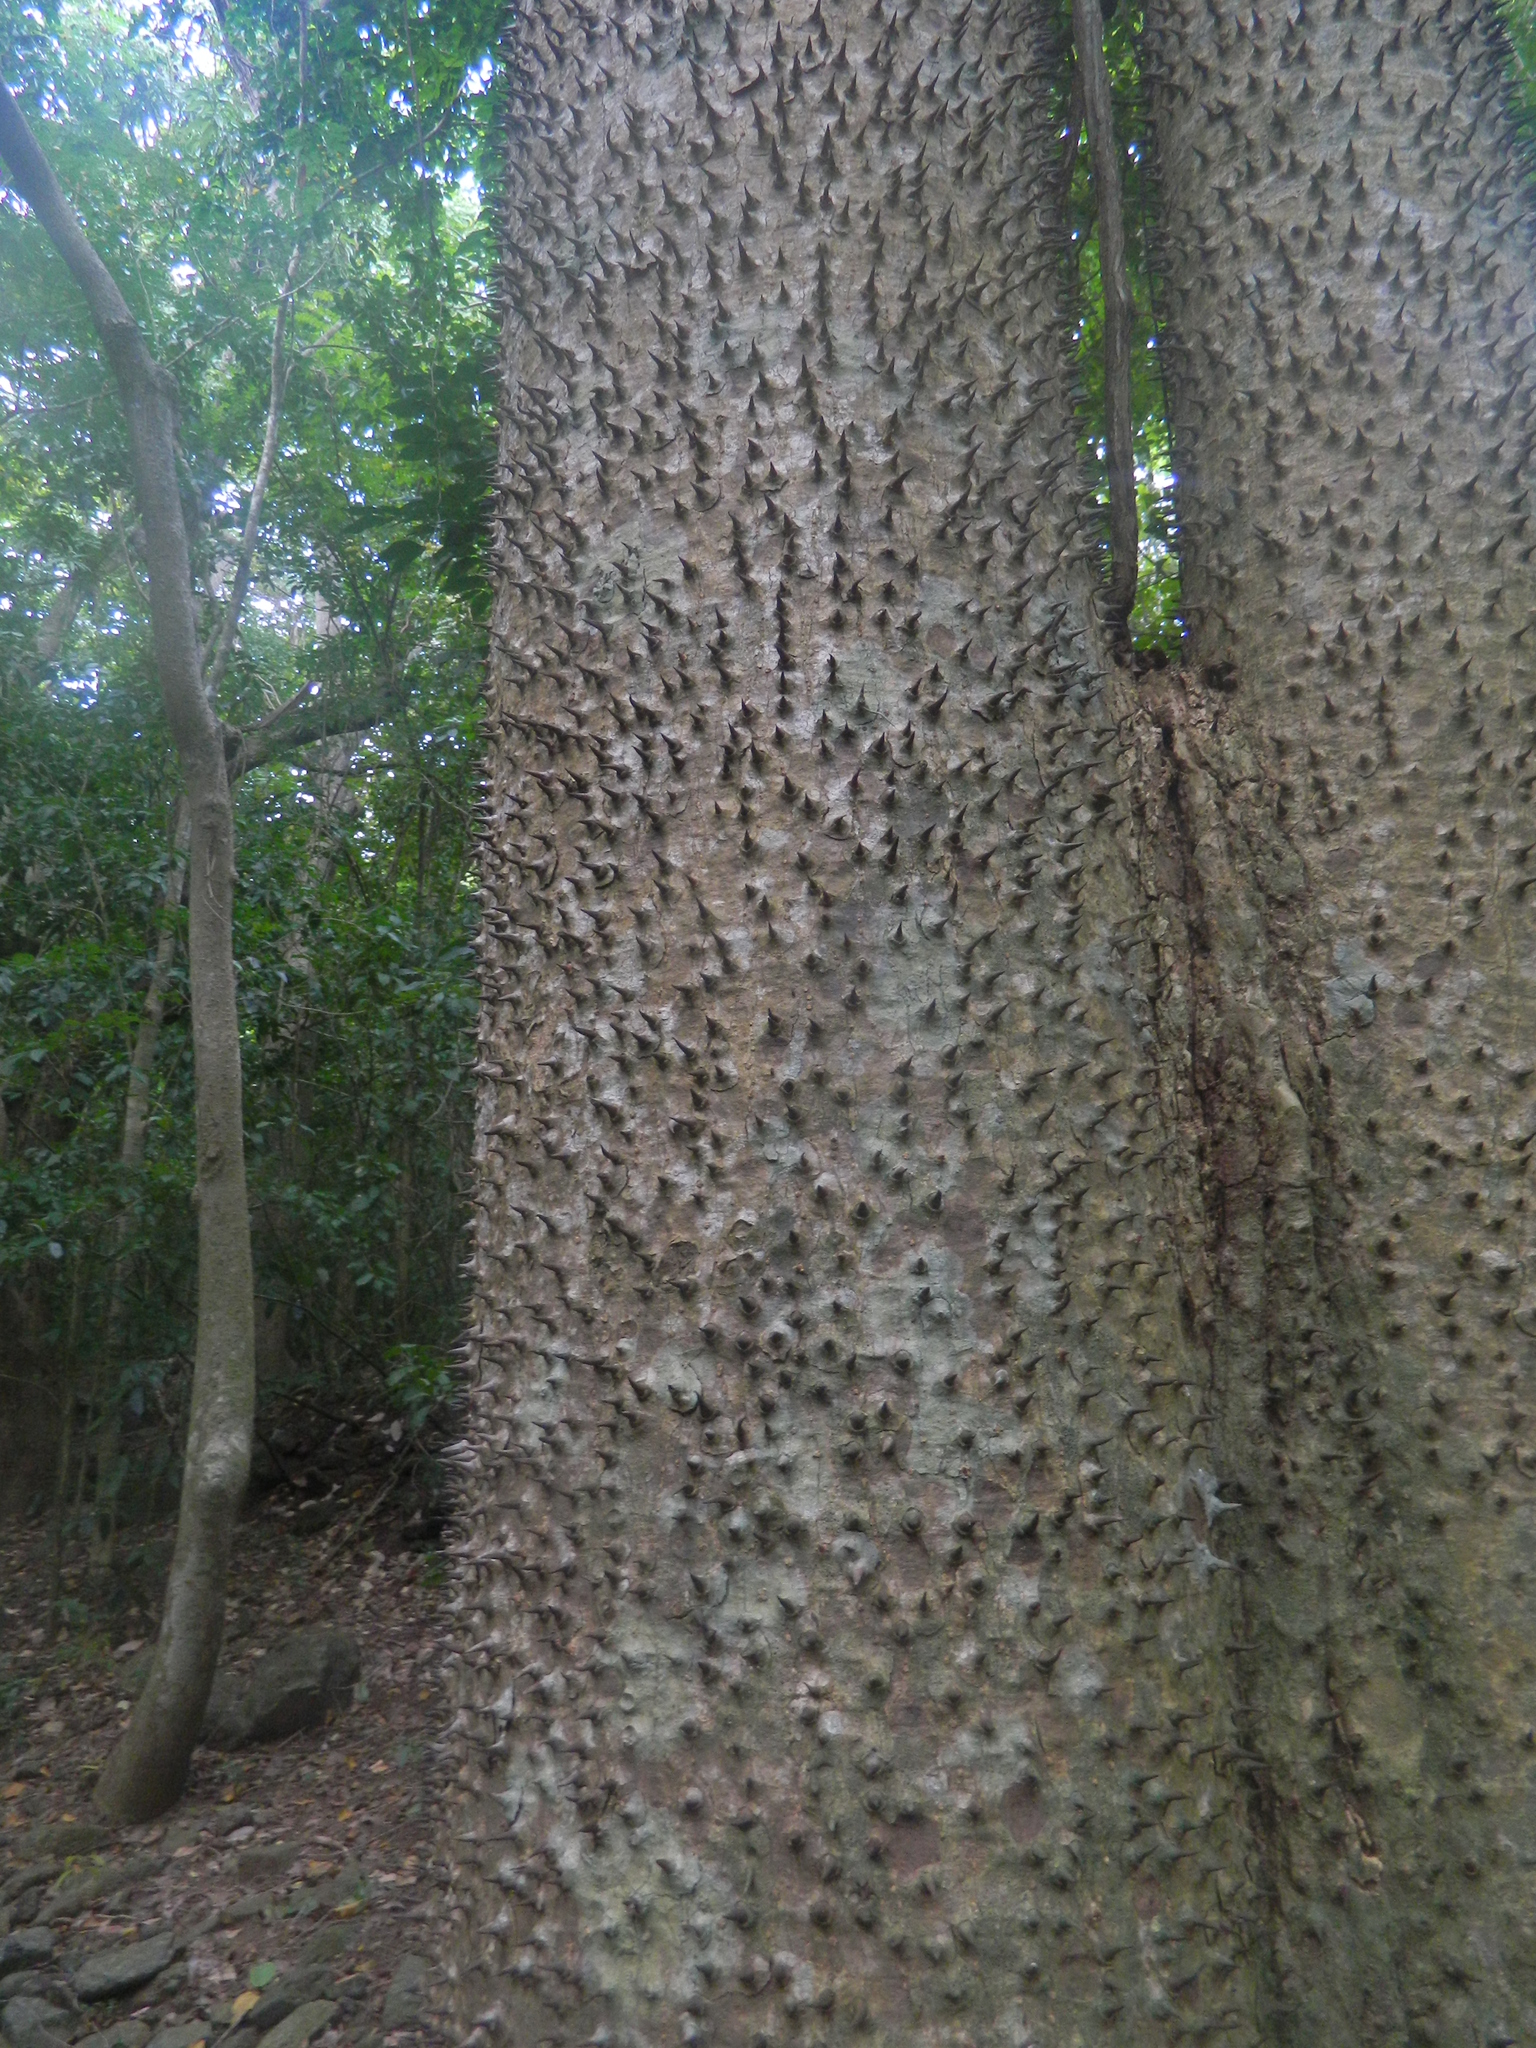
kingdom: Plantae
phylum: Tracheophyta
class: Magnoliopsida
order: Malpighiales
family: Euphorbiaceae
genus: Hura
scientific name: Hura crepitans
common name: Sandboxtree
